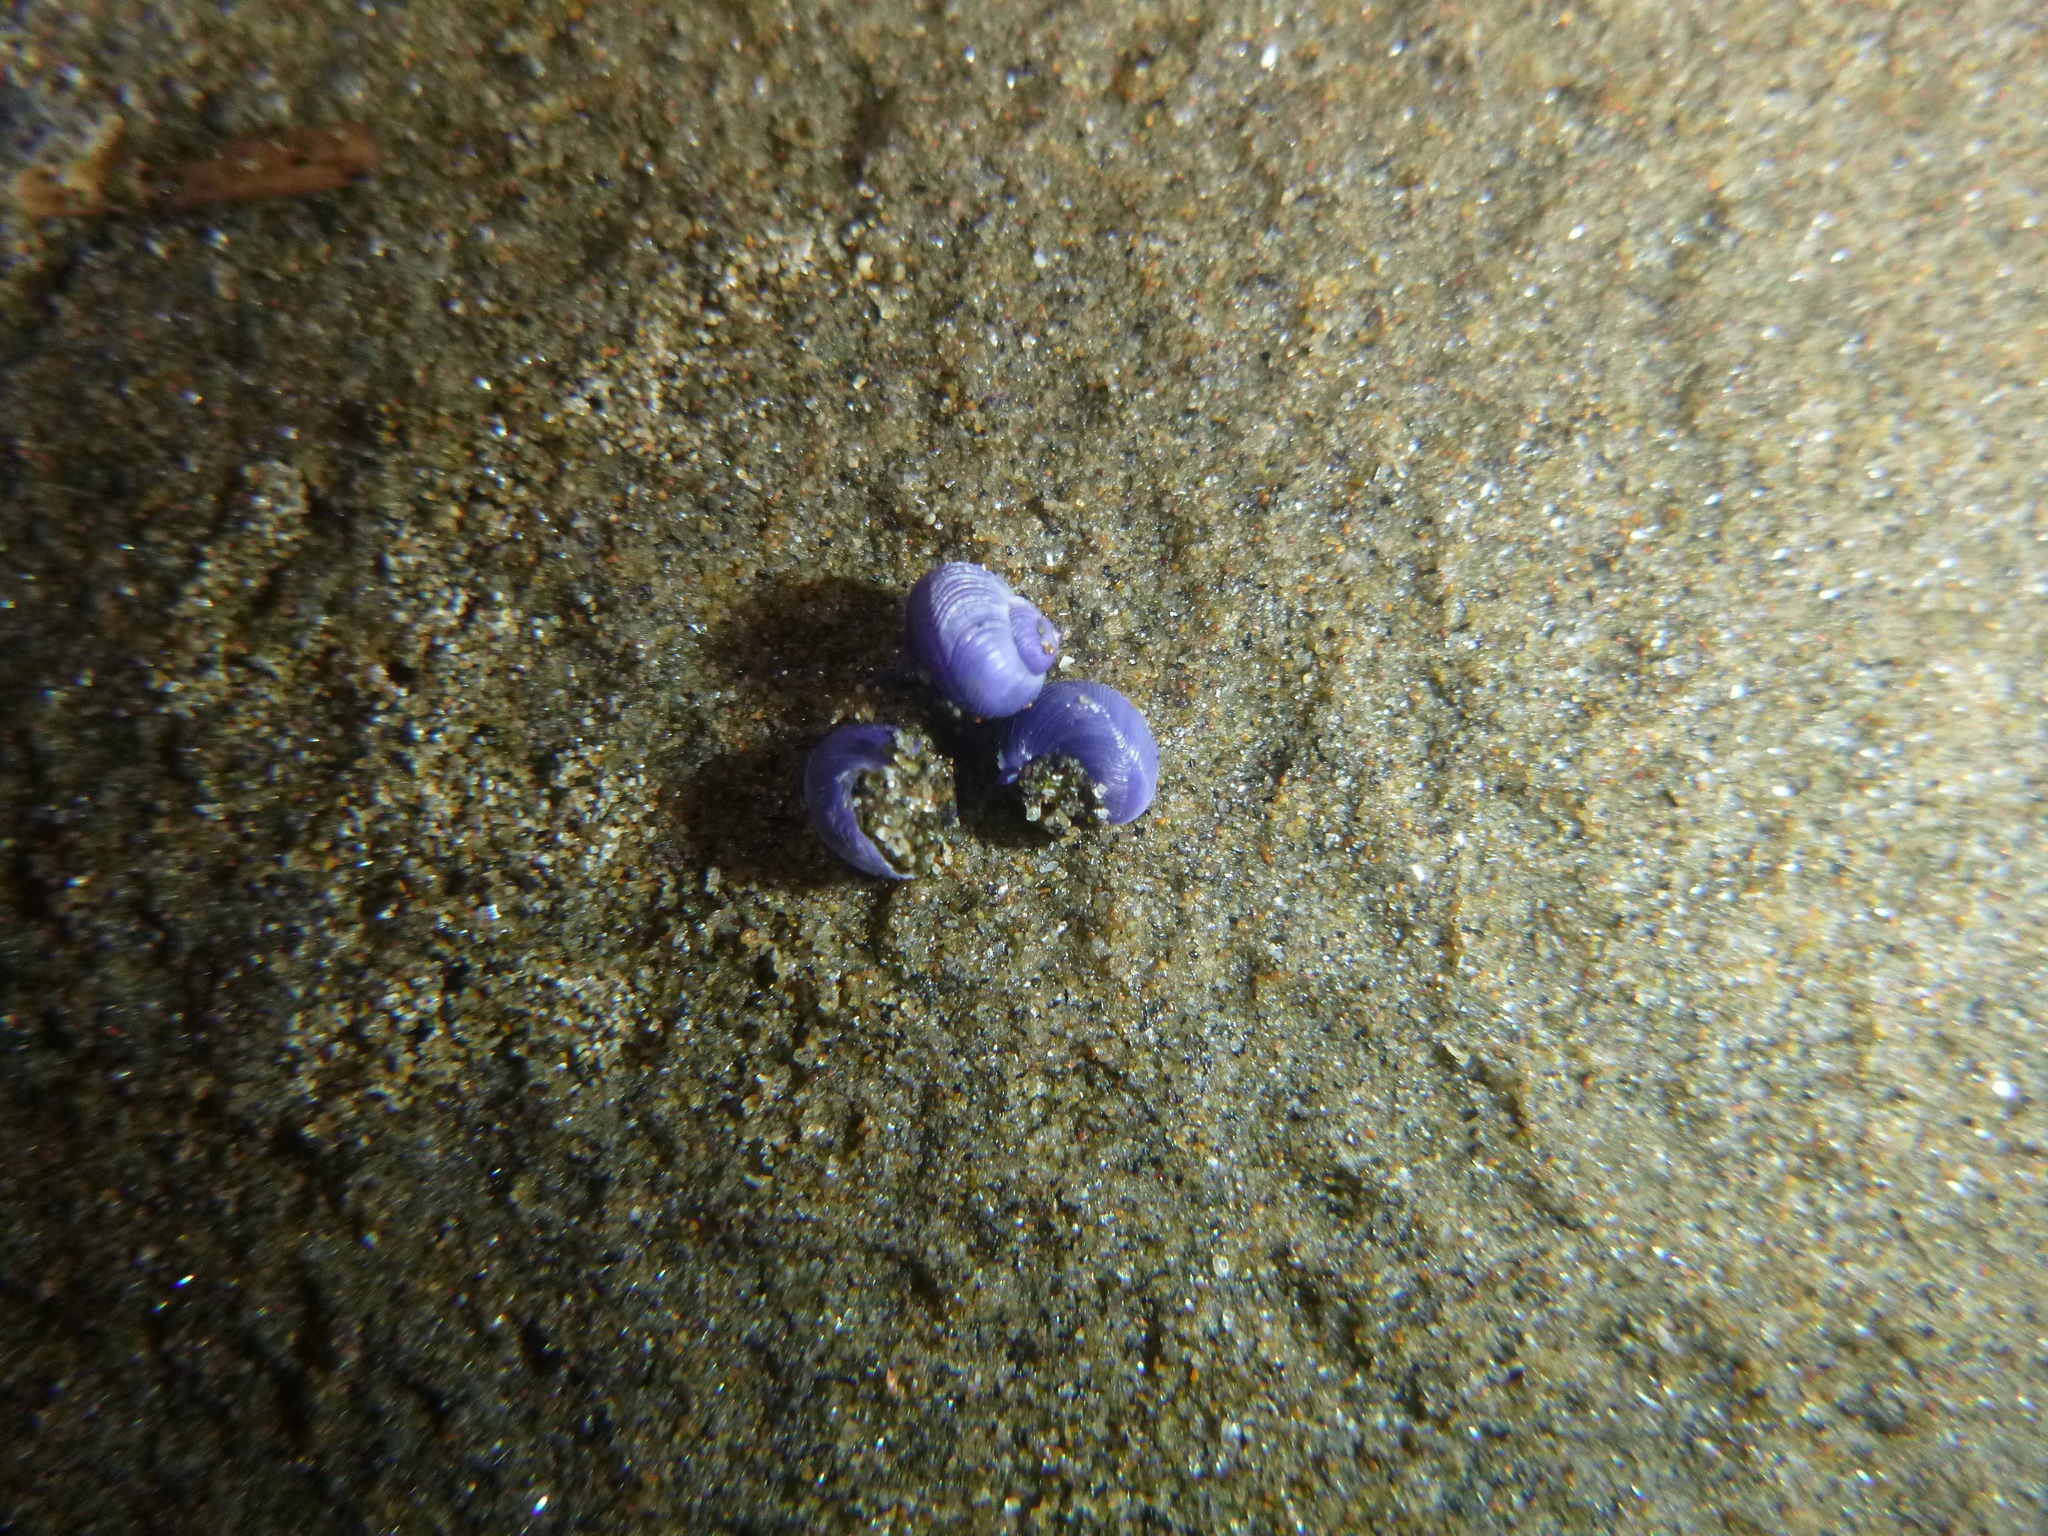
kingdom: Animalia
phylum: Mollusca
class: Gastropoda
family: Epitoniidae
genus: Janthina
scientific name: Janthina exigua
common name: Dwarf janthina
